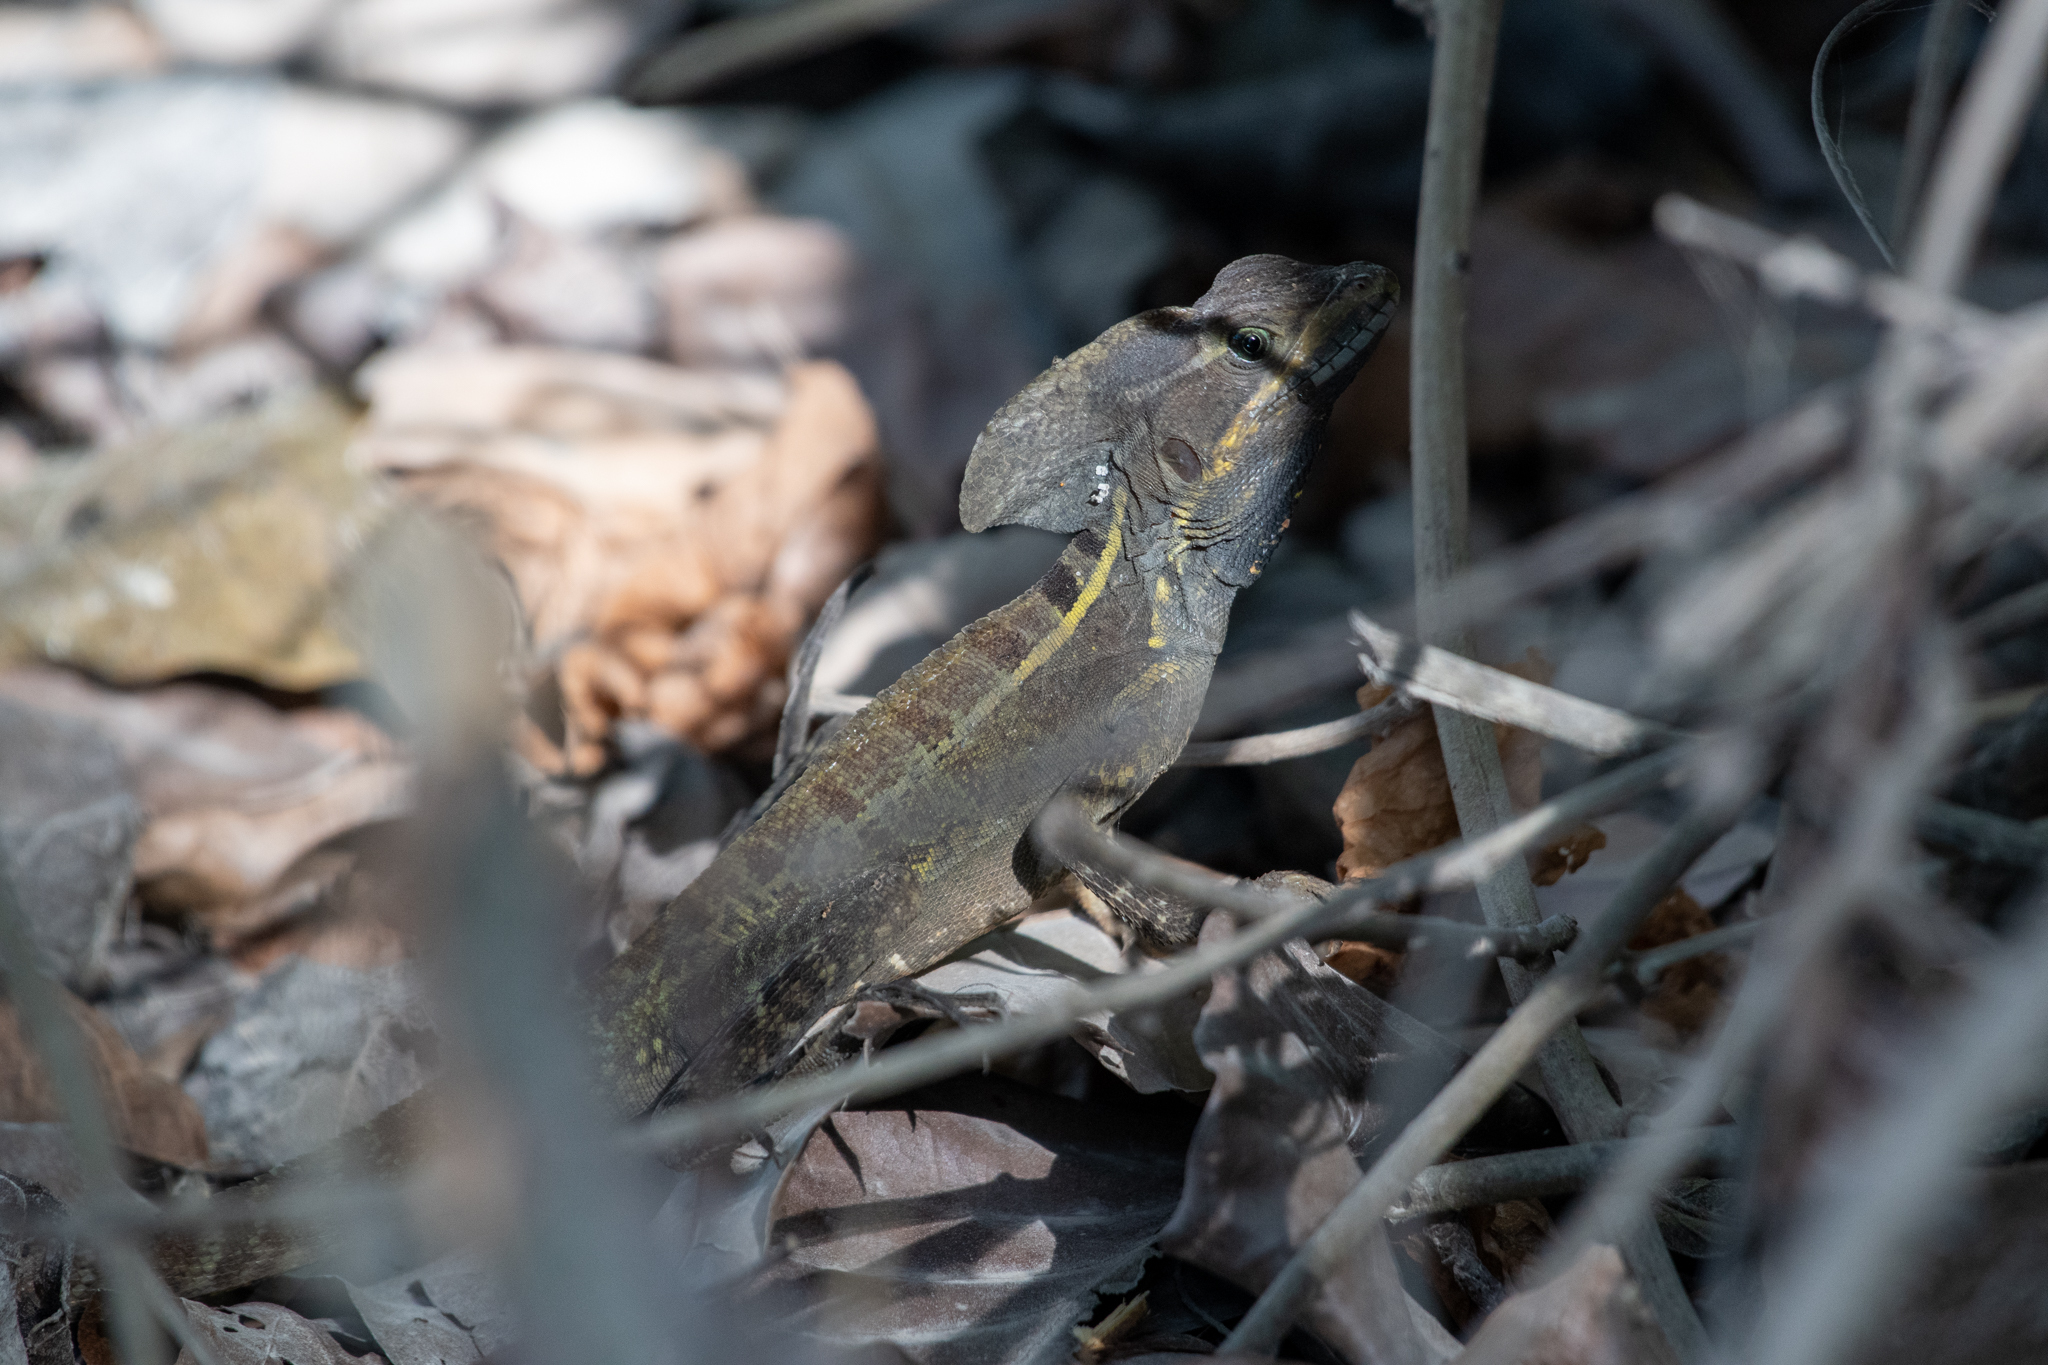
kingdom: Animalia
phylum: Chordata
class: Squamata
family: Corytophanidae
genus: Basiliscus
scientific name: Basiliscus vittatus
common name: Brown basilisk
